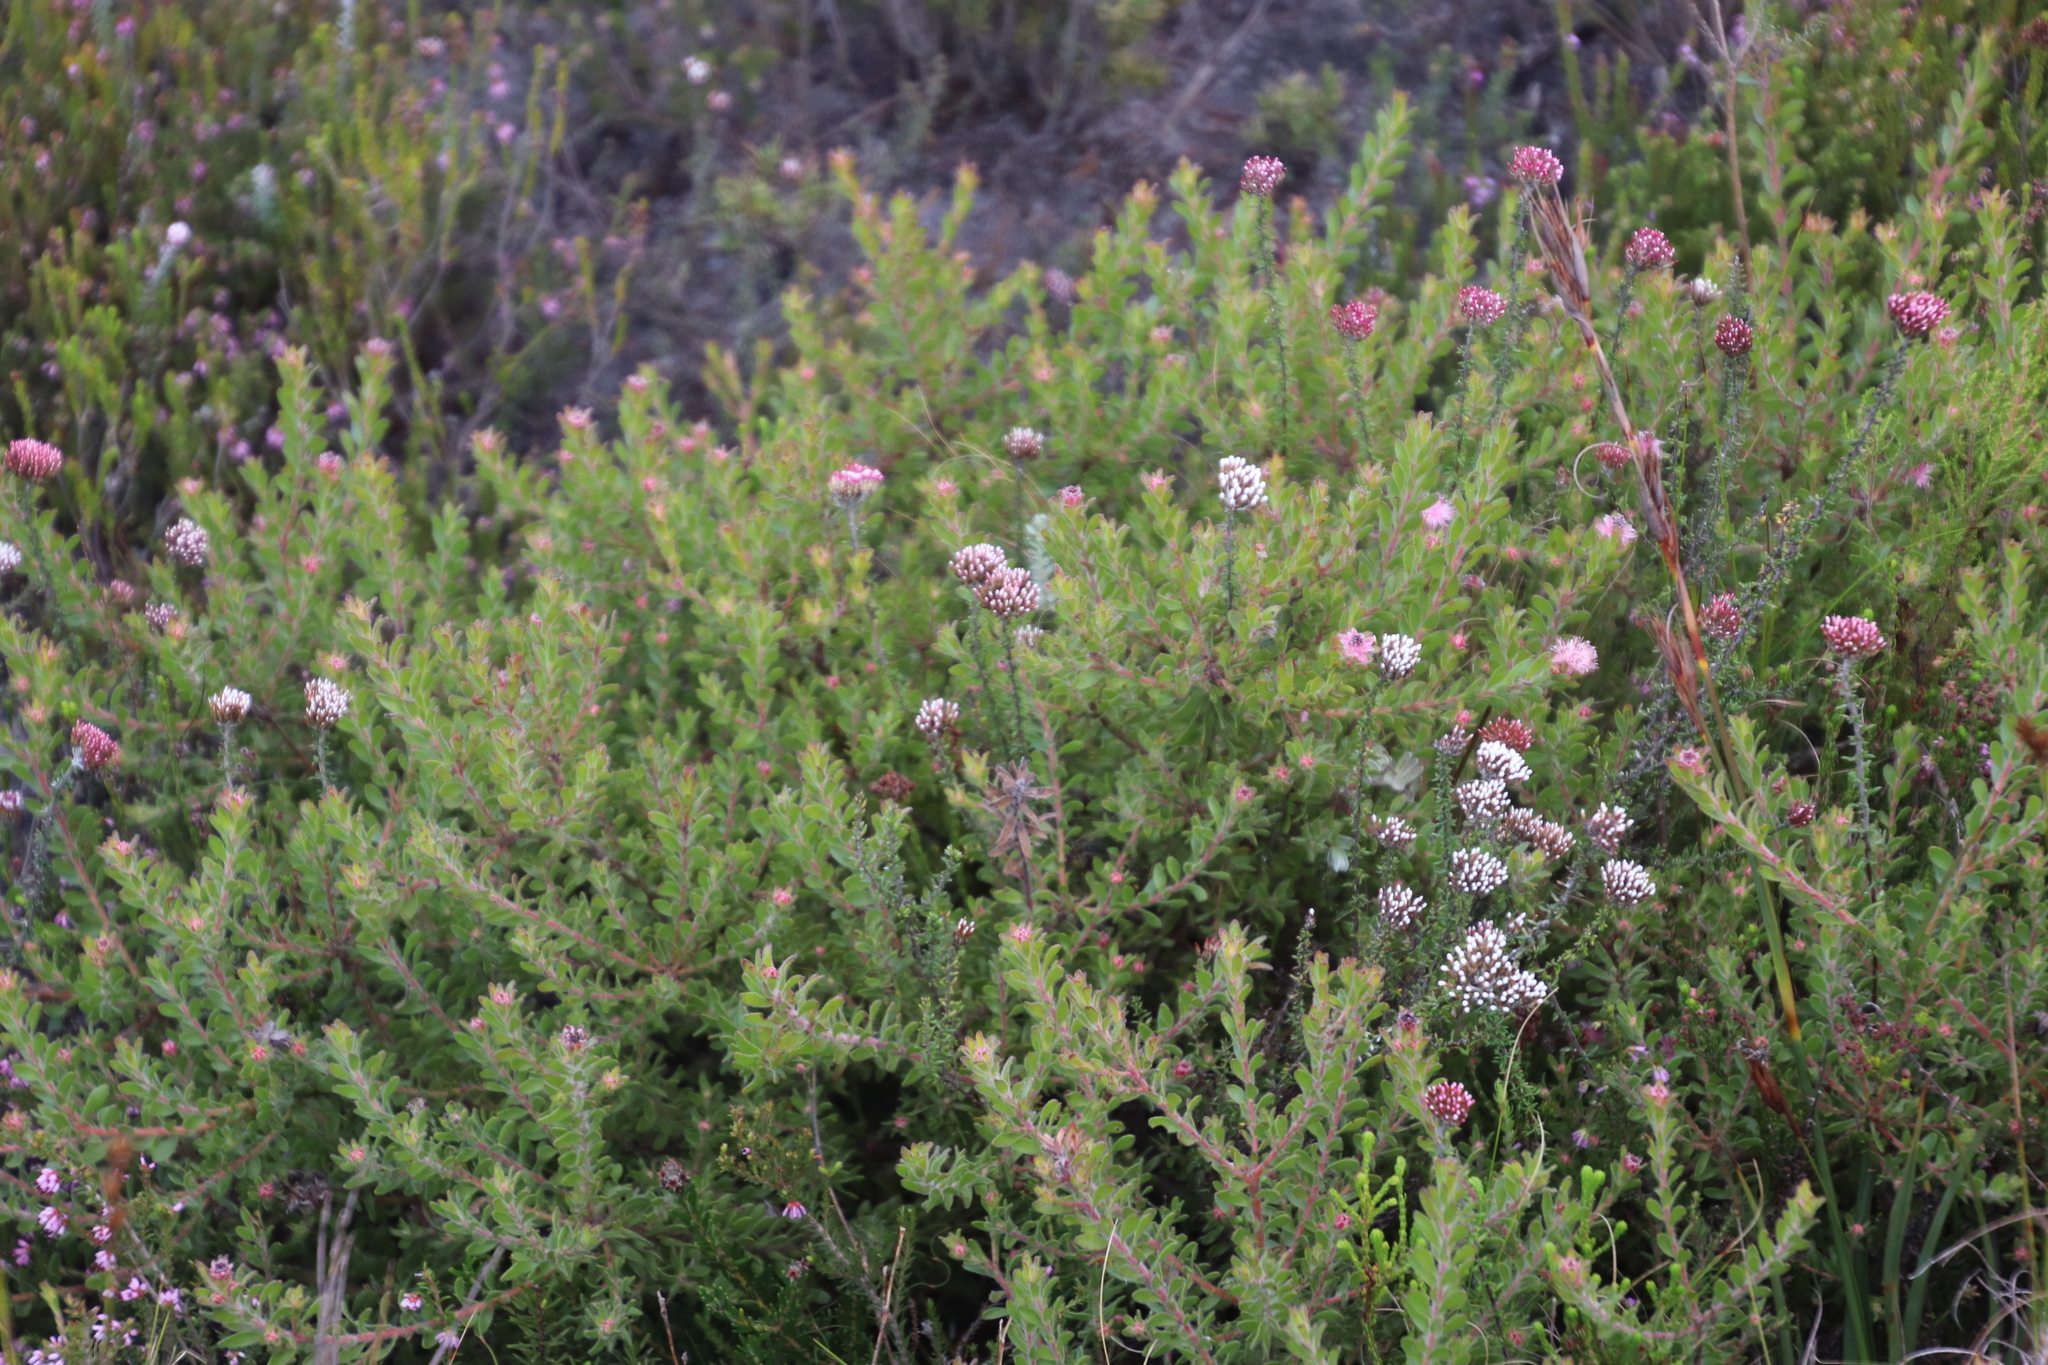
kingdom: Plantae
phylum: Tracheophyta
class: Magnoliopsida
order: Proteales
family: Proteaceae
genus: Diastella
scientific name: Diastella divaricata
